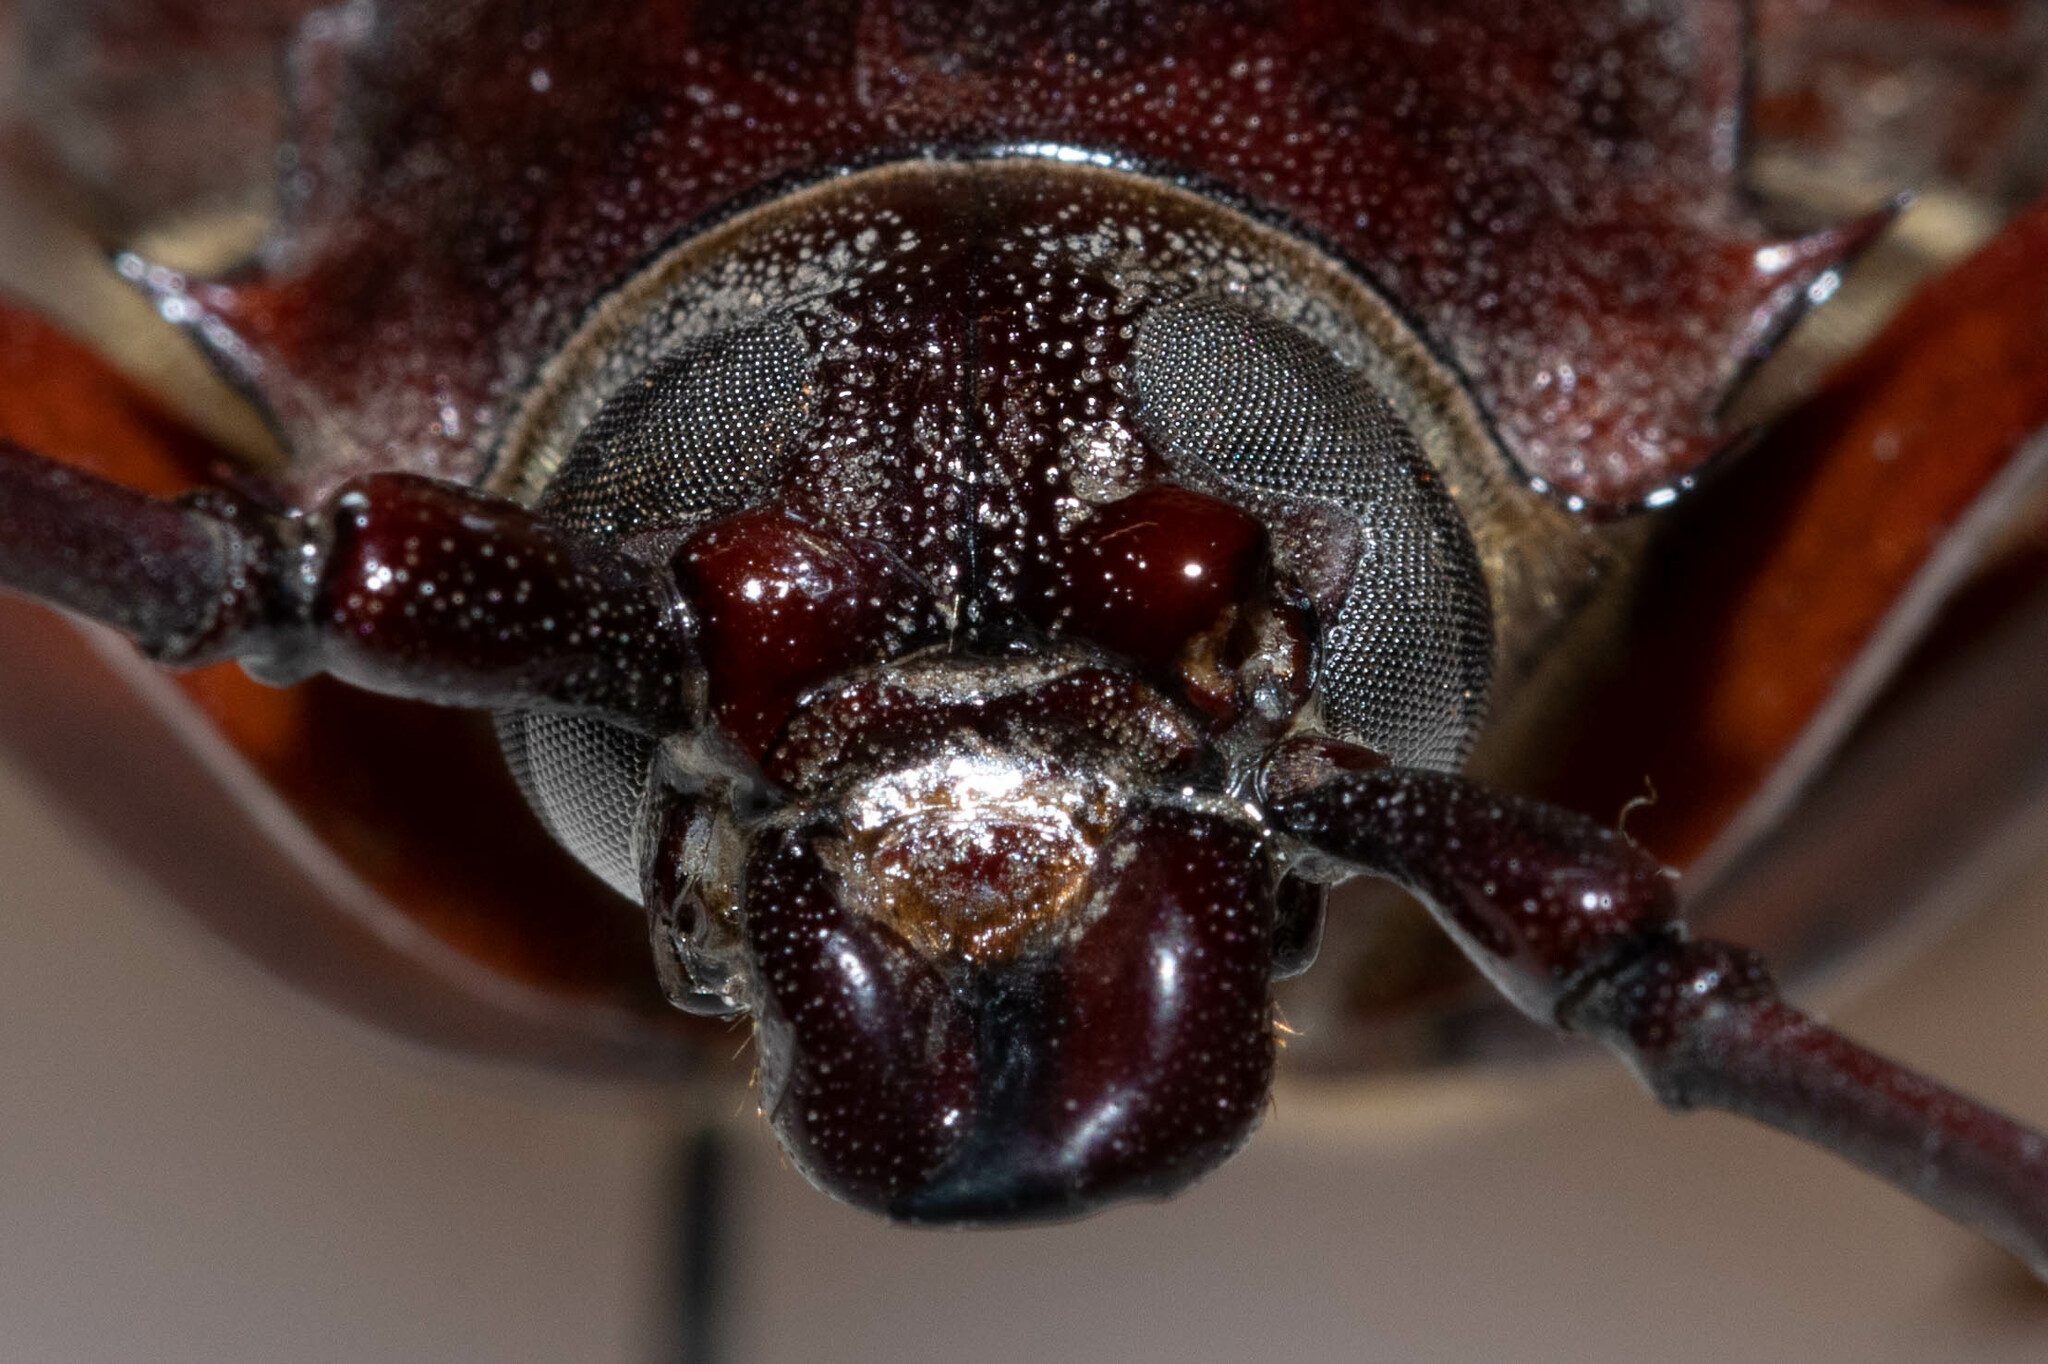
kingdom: Animalia
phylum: Arthropoda
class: Insecta
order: Coleoptera
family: Cerambycidae
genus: Prionus
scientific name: Prionus californicus
